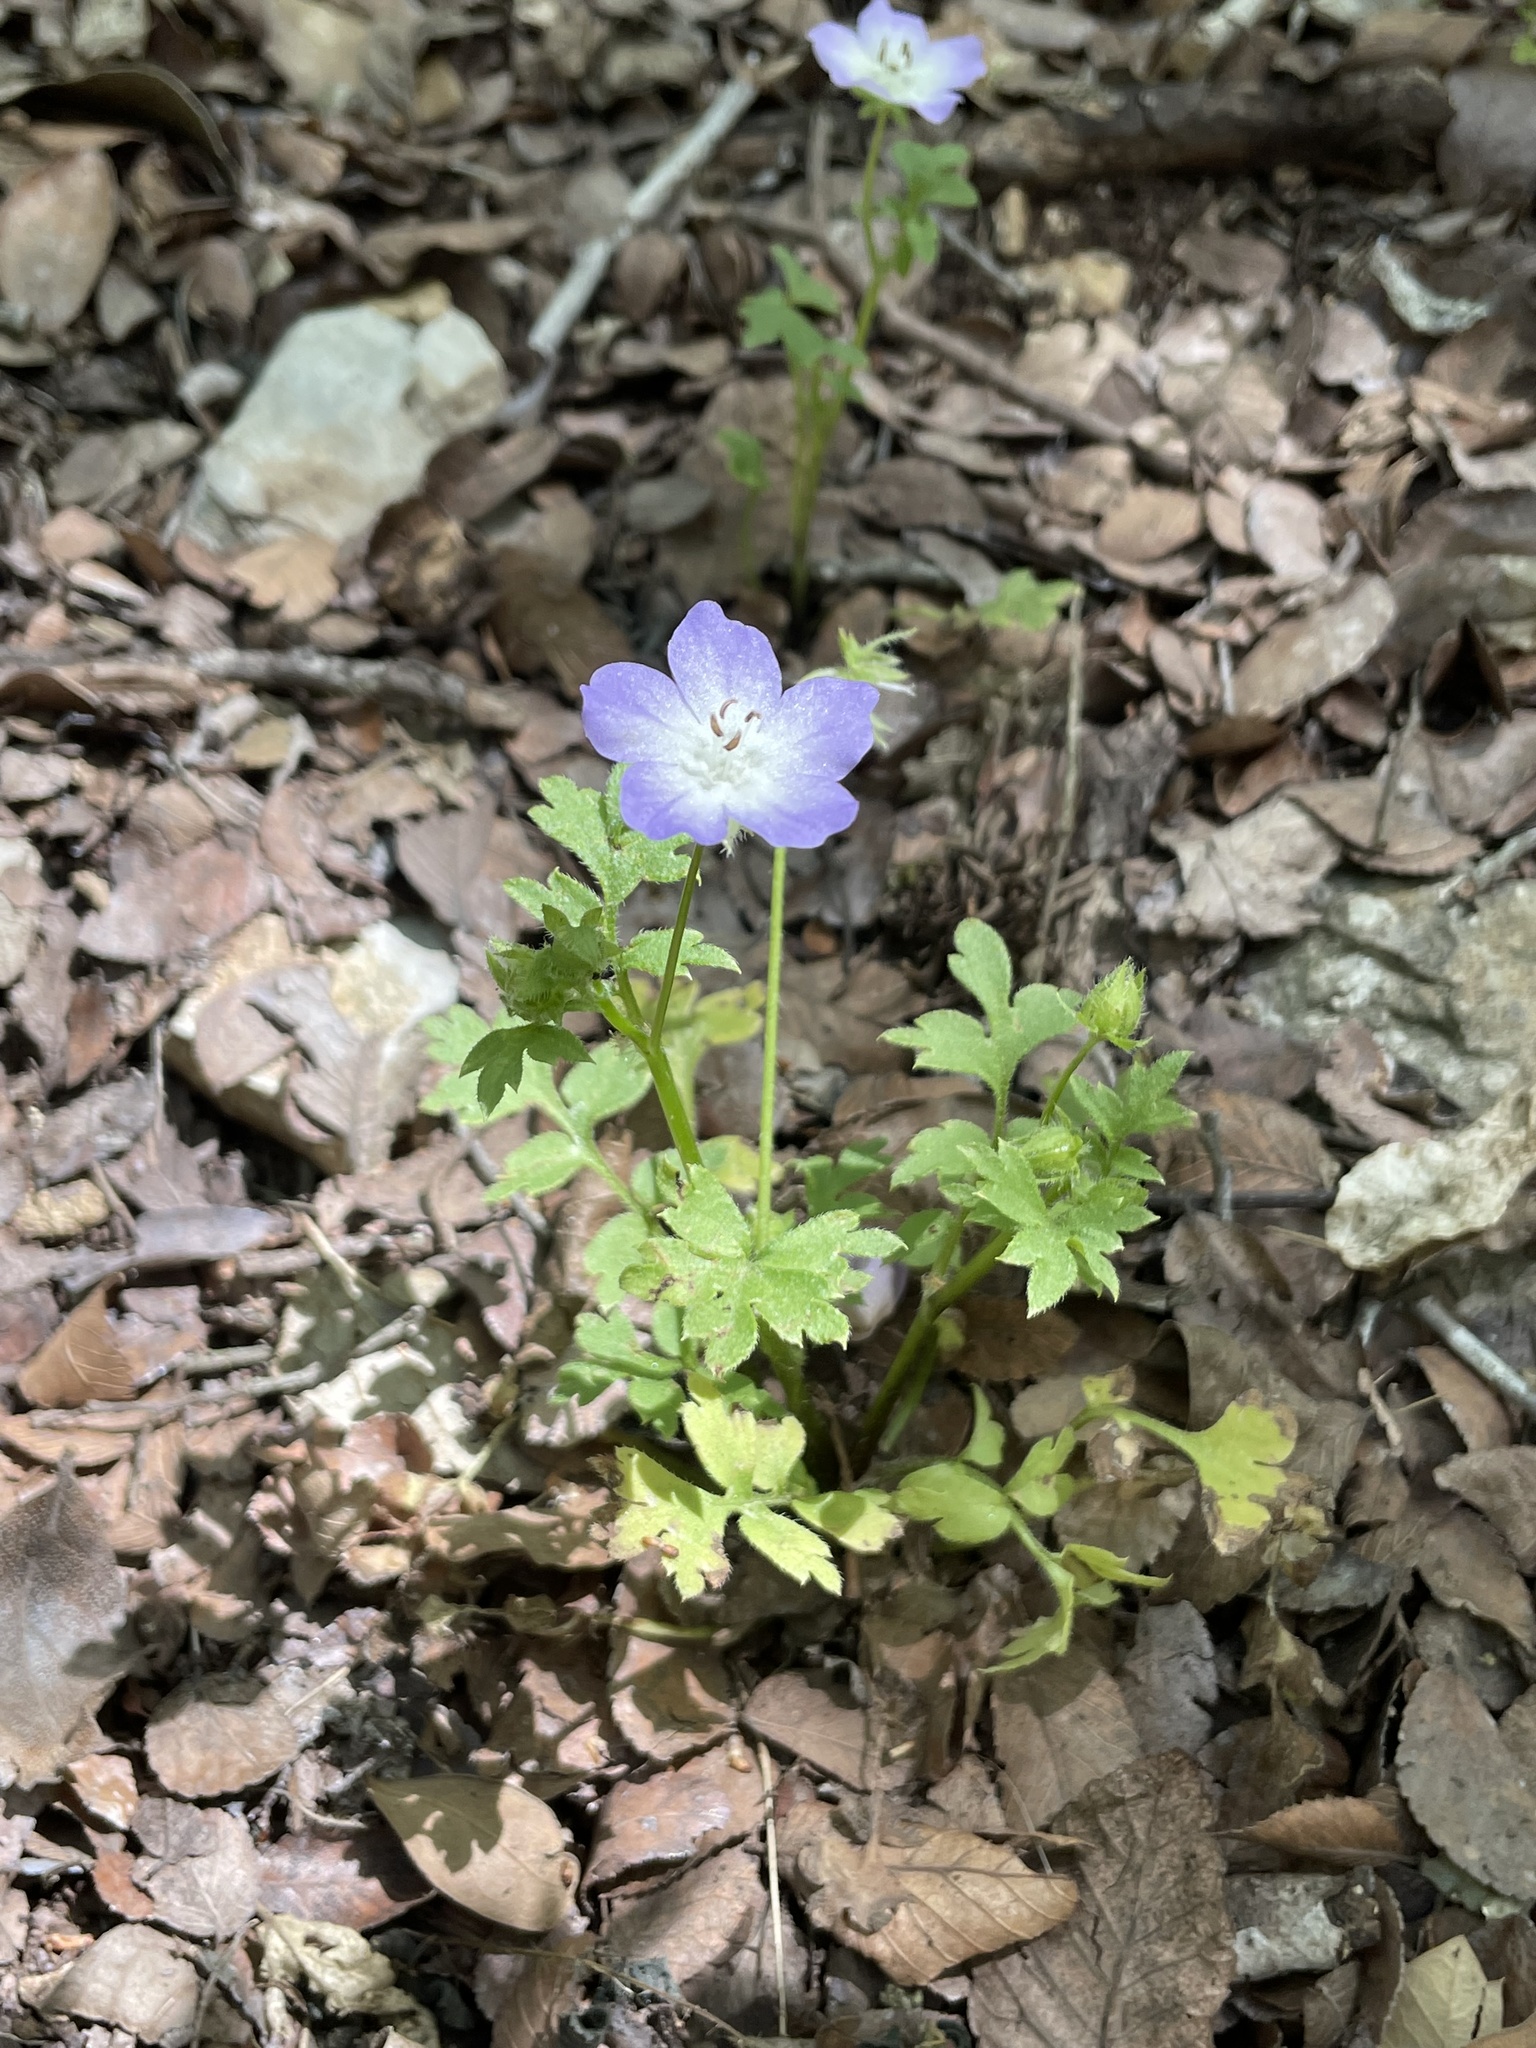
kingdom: Plantae
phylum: Tracheophyta
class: Magnoliopsida
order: Boraginales
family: Hydrophyllaceae
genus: Nemophila
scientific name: Nemophila phacelioides
